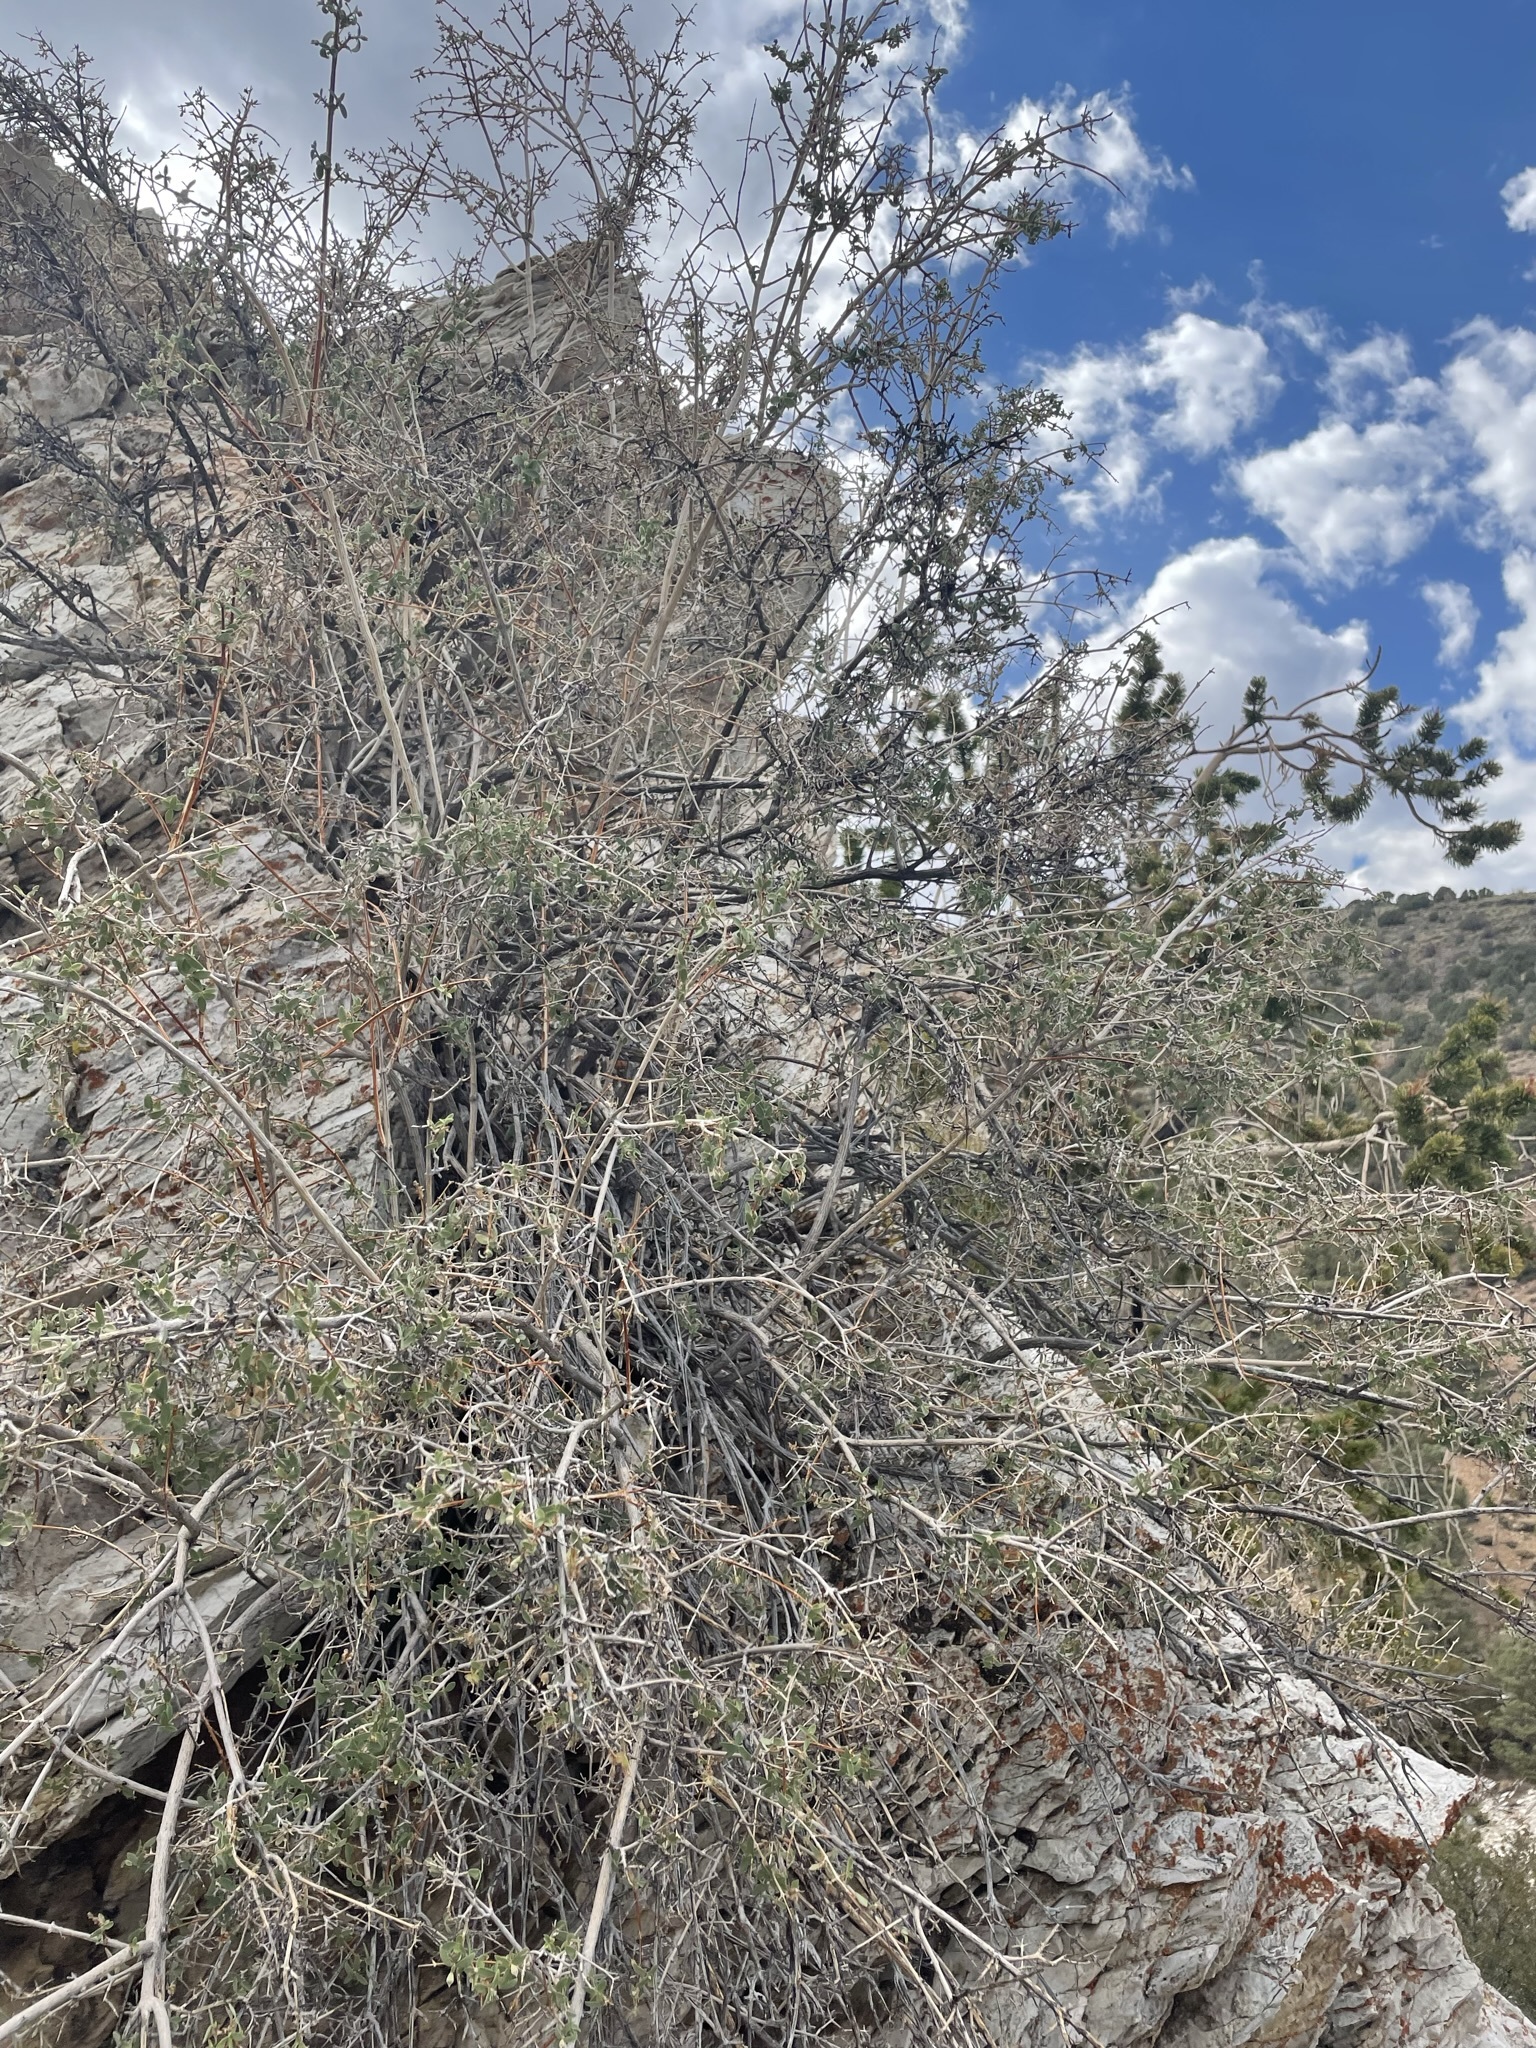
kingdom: Plantae
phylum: Tracheophyta
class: Magnoliopsida
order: Cornales
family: Hydrangeaceae
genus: Philadelphus
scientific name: Philadelphus microphyllus
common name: Desert mock orange
